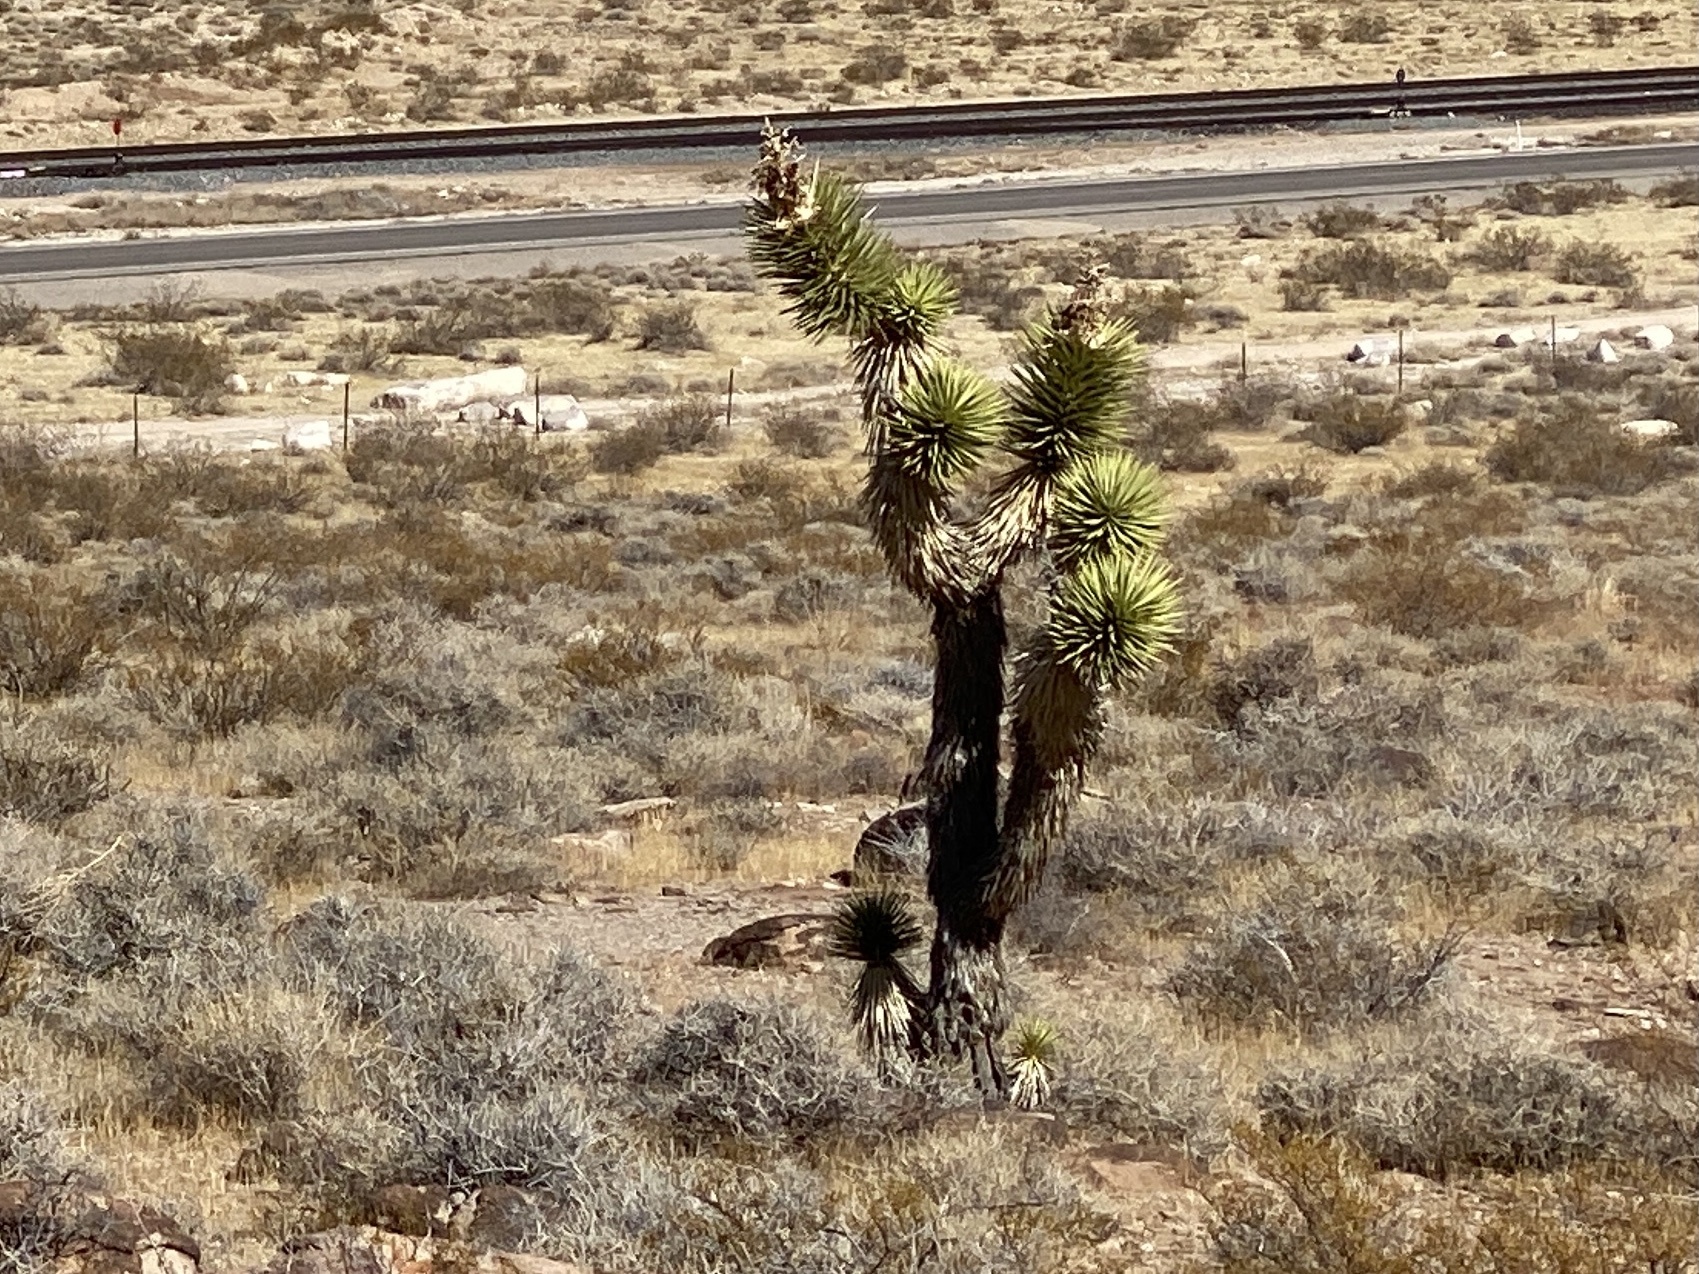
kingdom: Plantae
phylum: Tracheophyta
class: Liliopsida
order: Asparagales
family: Asparagaceae
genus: Yucca
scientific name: Yucca brevifolia
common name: Joshua tree
